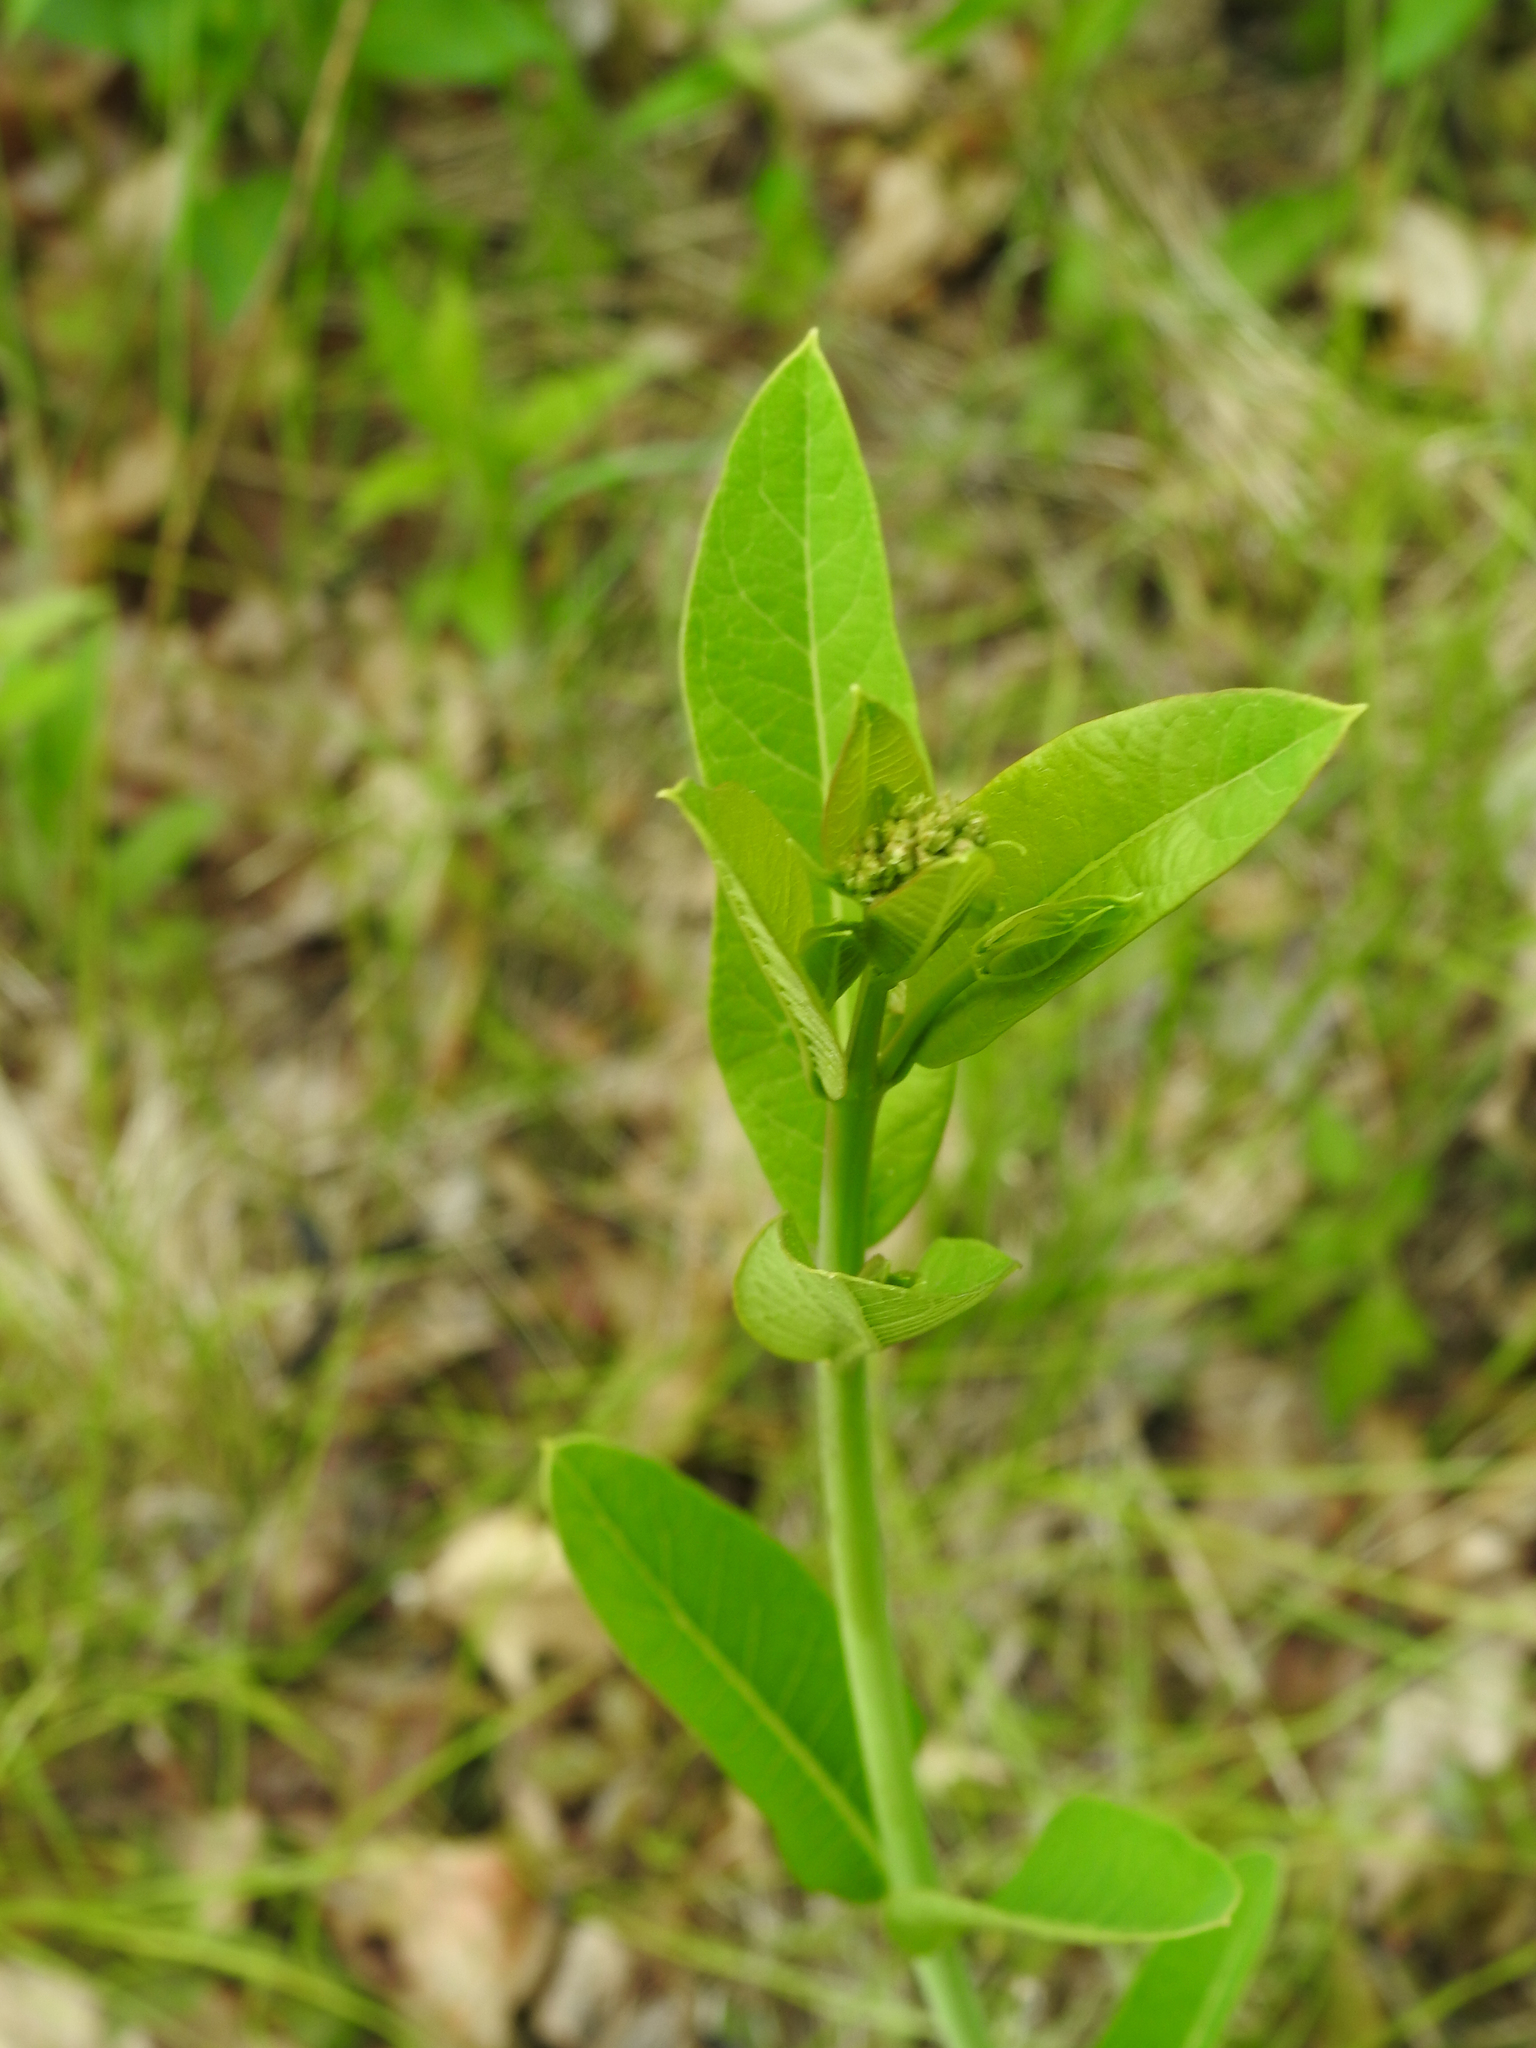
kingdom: Plantae
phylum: Tracheophyta
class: Magnoliopsida
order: Gentianales
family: Apocynaceae
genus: Asclepias
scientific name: Asclepias syriaca
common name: Common milkweed
